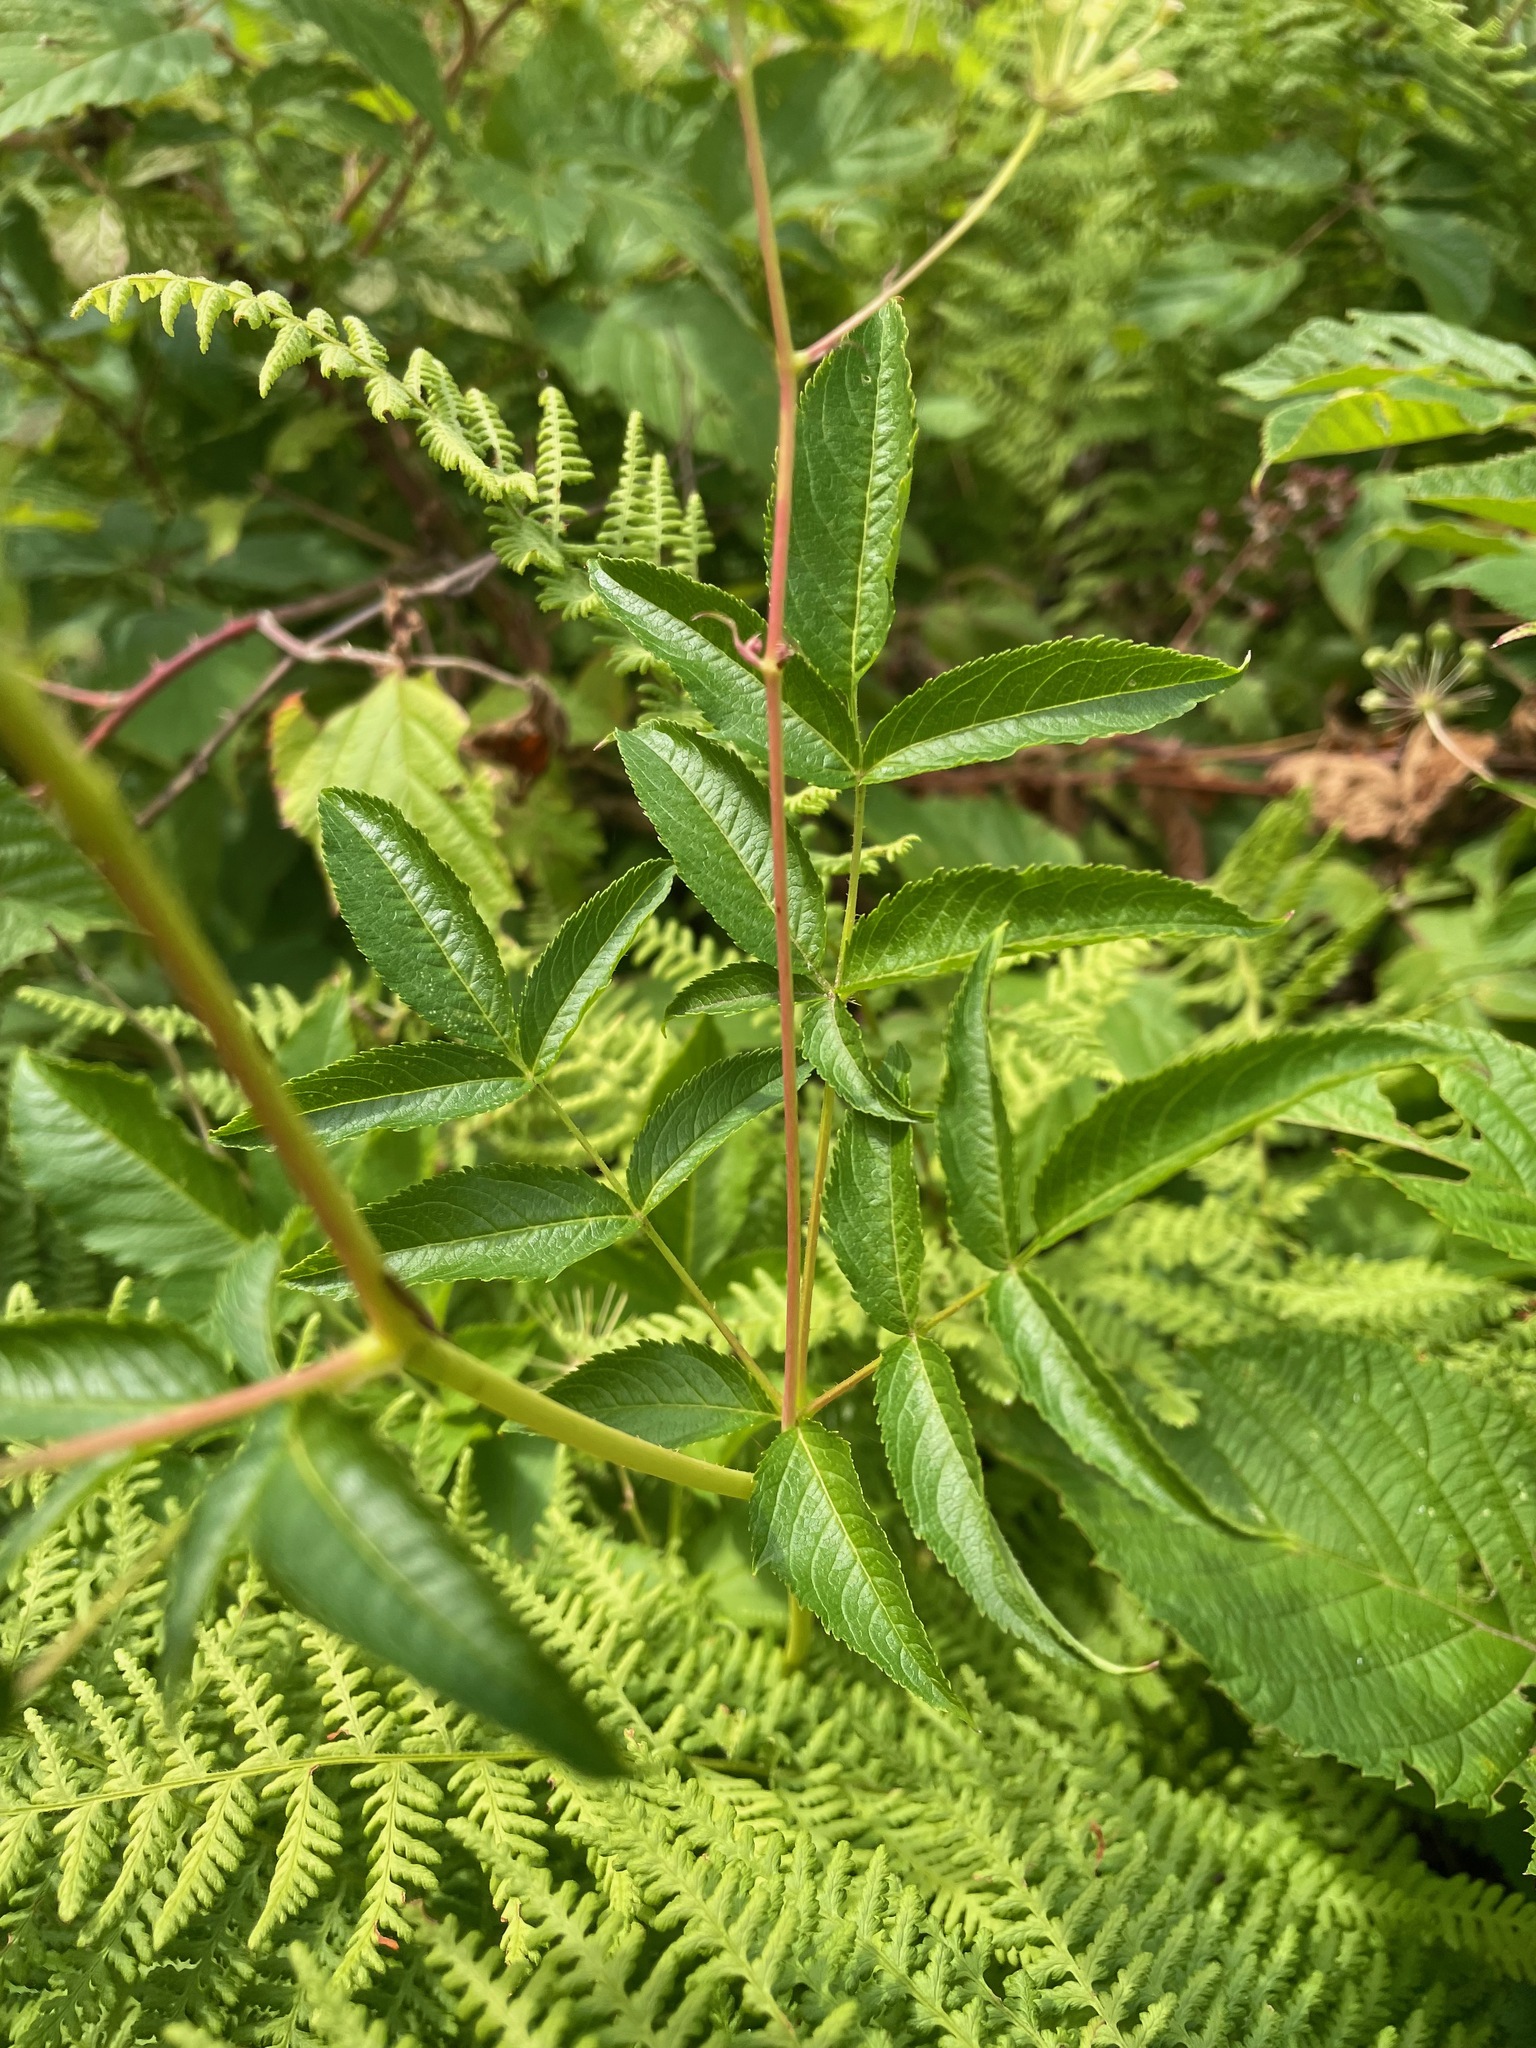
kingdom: Plantae
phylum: Tracheophyta
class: Magnoliopsida
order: Apiales
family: Araliaceae
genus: Aralia
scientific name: Aralia hispida
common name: Bristly sarsaparilla
